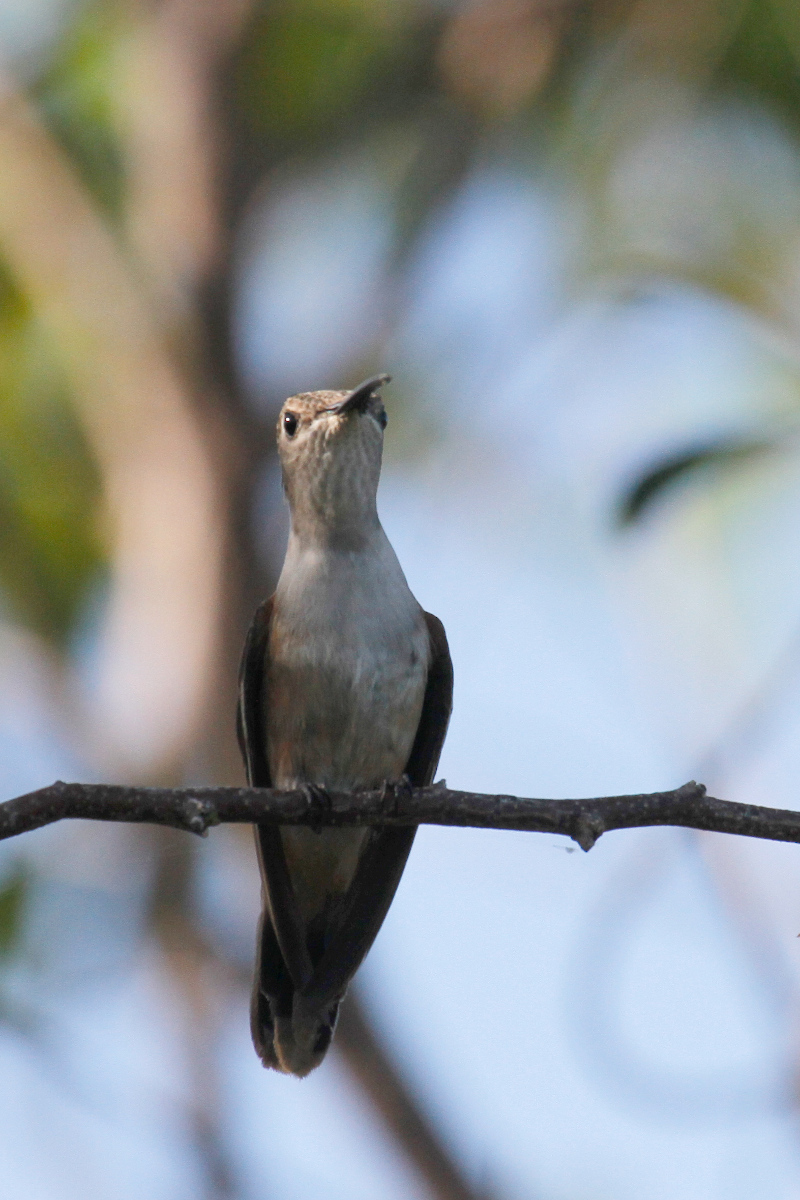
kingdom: Animalia
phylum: Chordata
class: Aves
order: Apodiformes
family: Trochilidae
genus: Nesophlox
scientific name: Nesophlox evelynae
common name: Bahama woodstar
